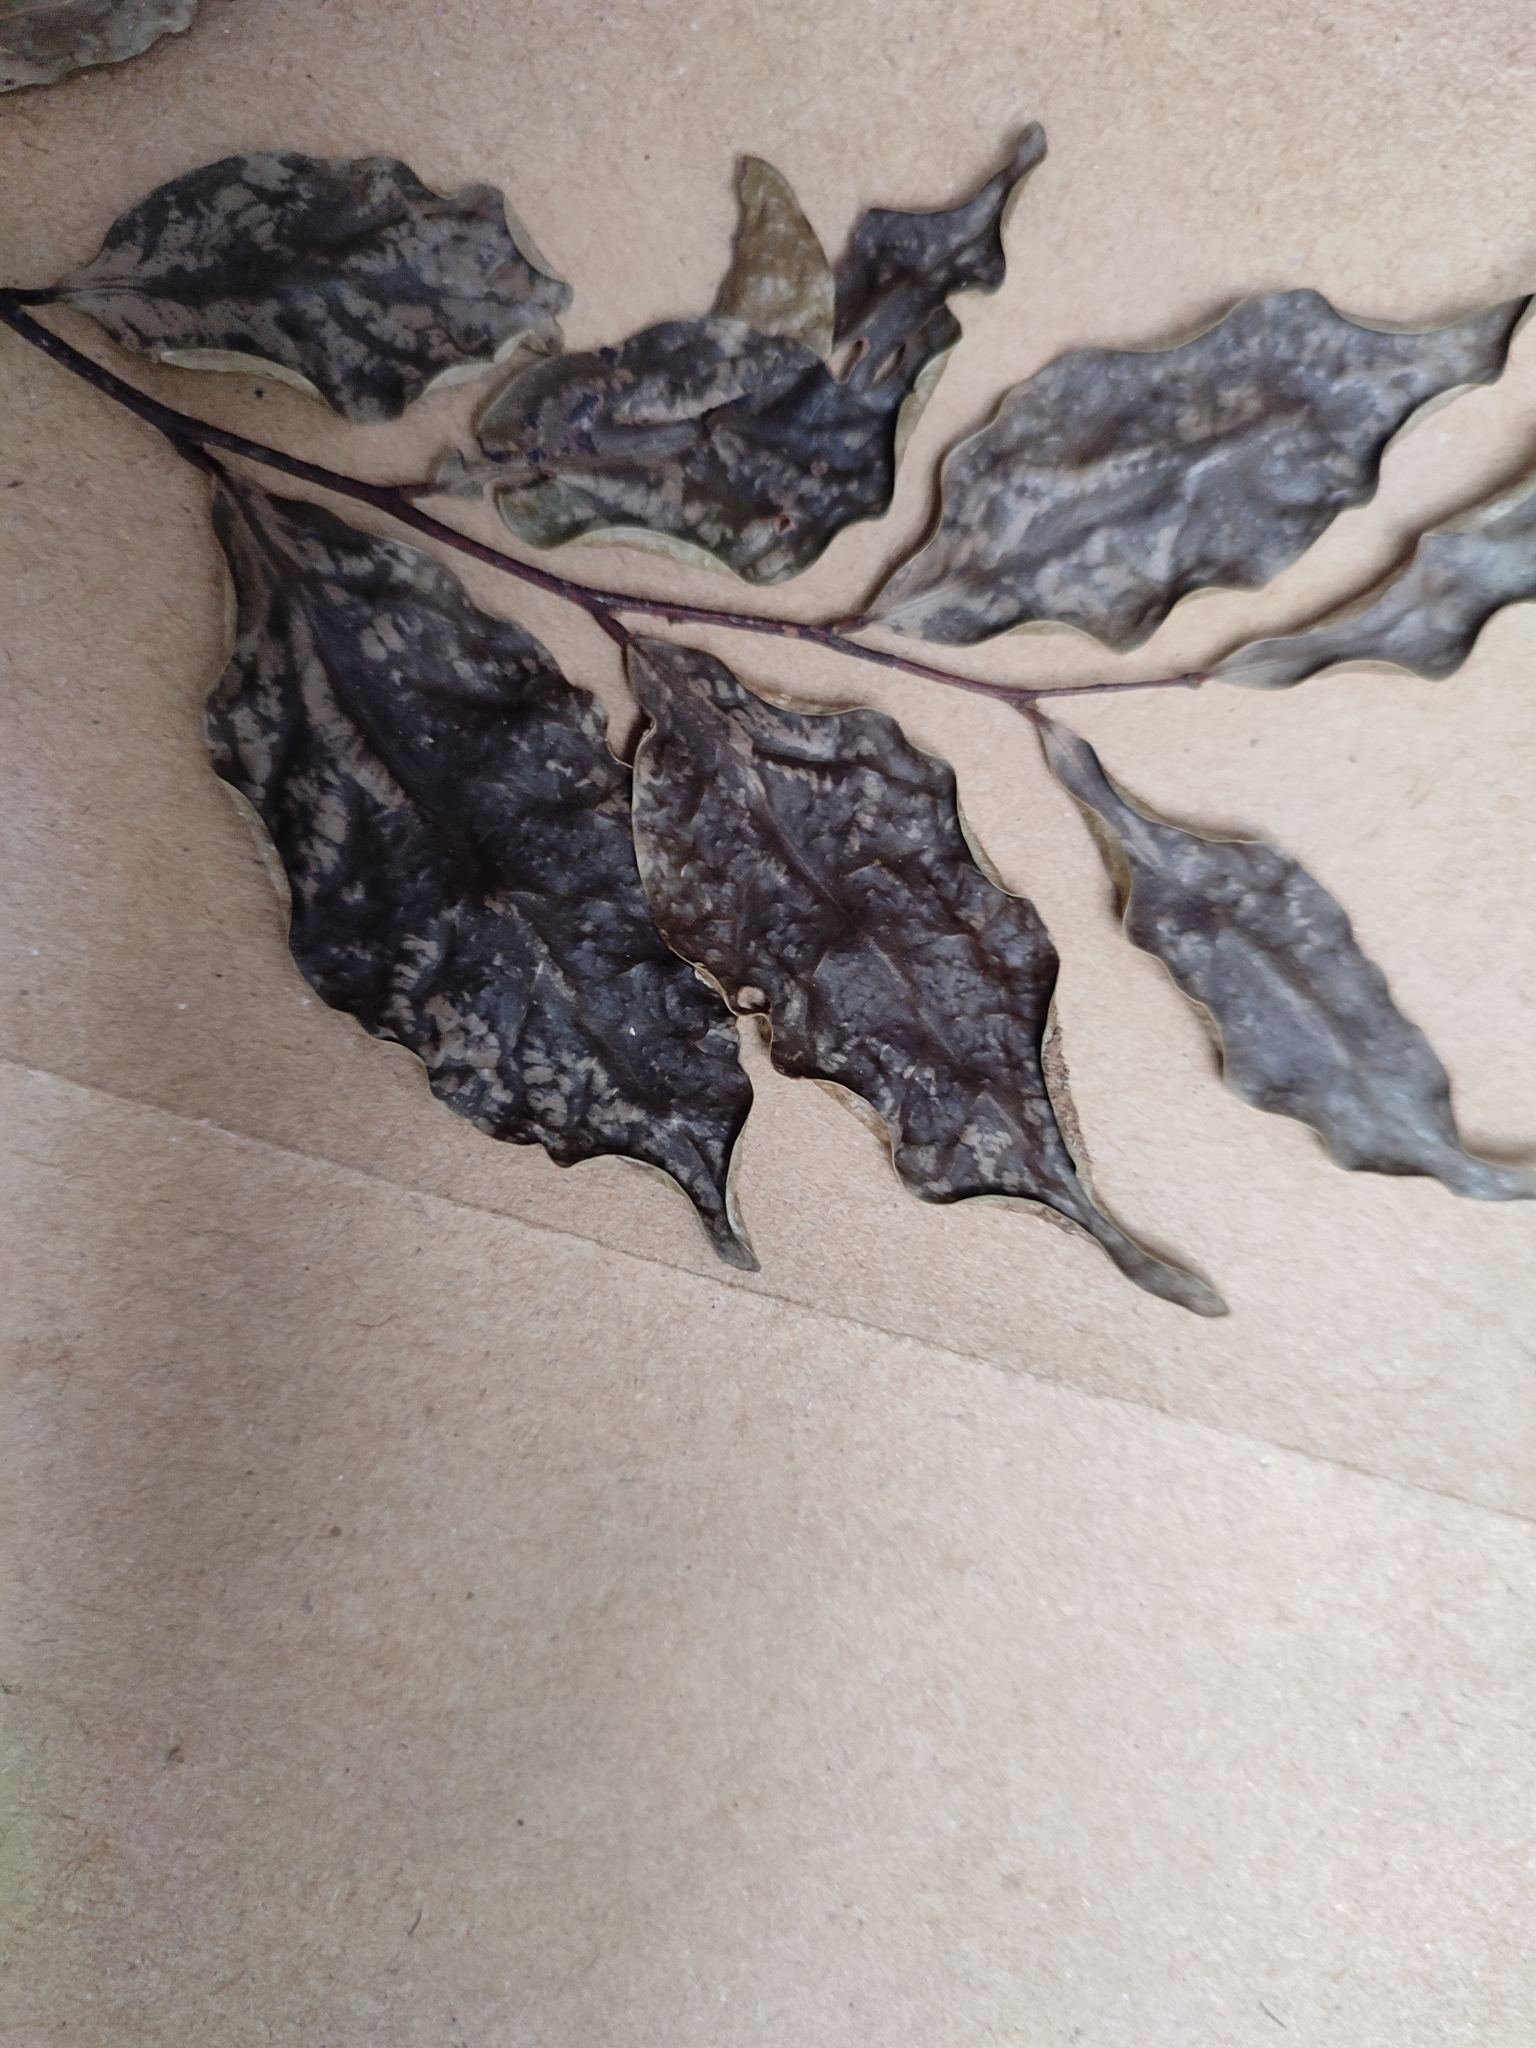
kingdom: Plantae
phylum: Tracheophyta
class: Magnoliopsida
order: Magnoliales
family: Annonaceae
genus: Orophea
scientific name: Orophea thomsonii
